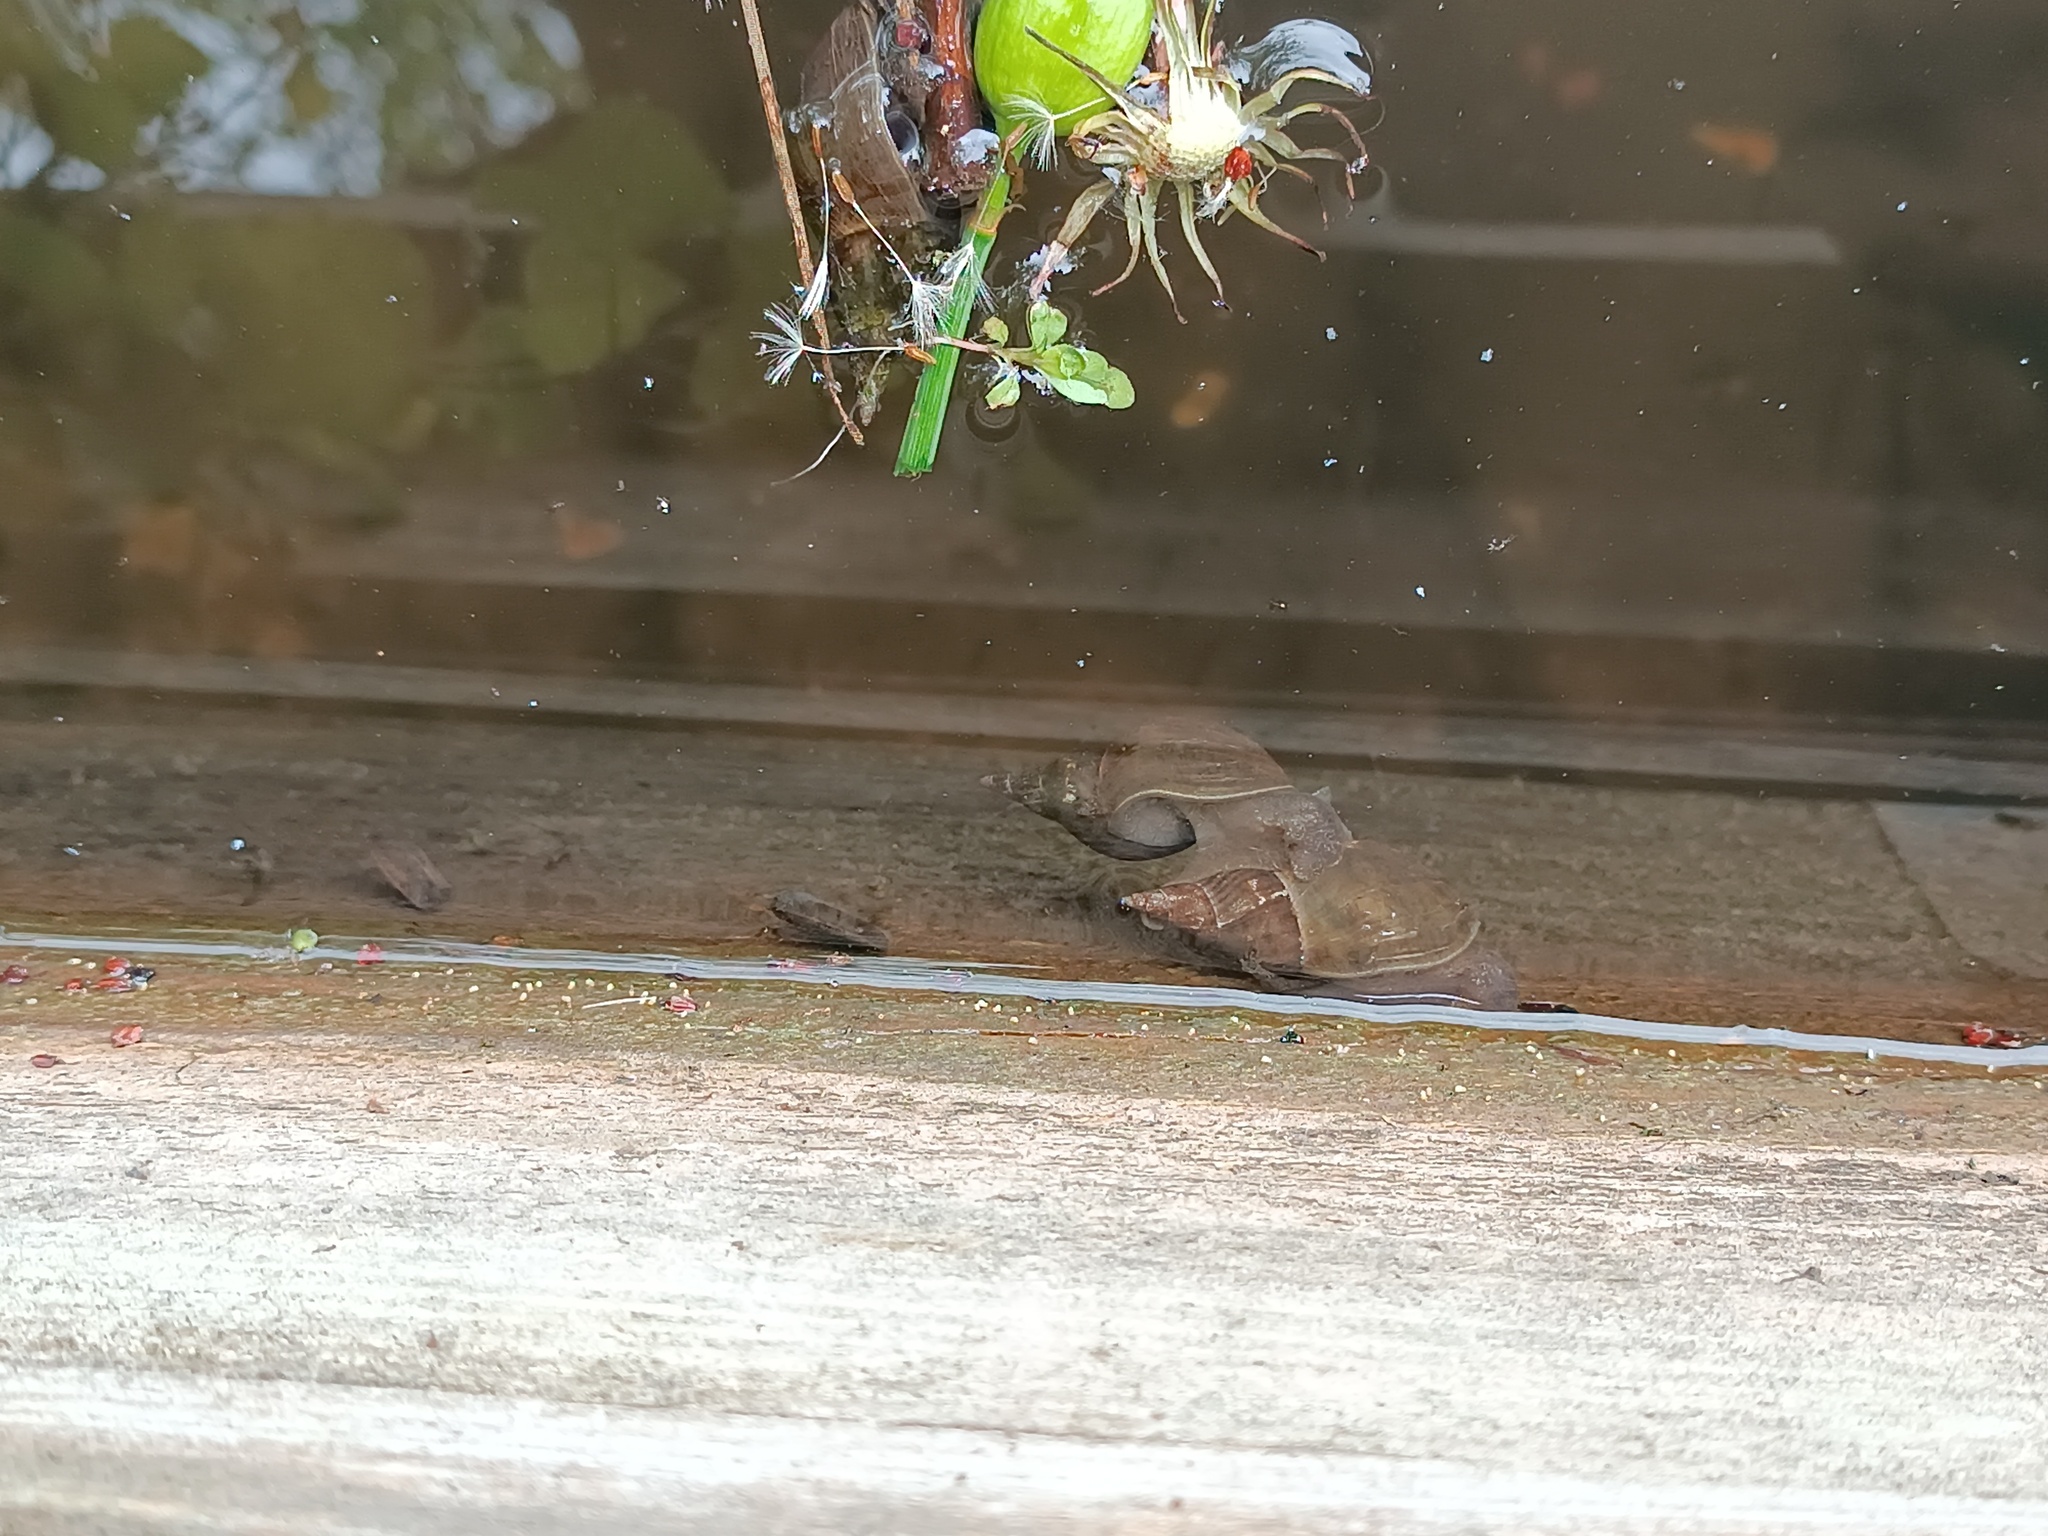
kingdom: Animalia
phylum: Mollusca
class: Gastropoda
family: Lymnaeidae
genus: Lymnaea
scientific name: Lymnaea stagnalis
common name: Great pond snail
